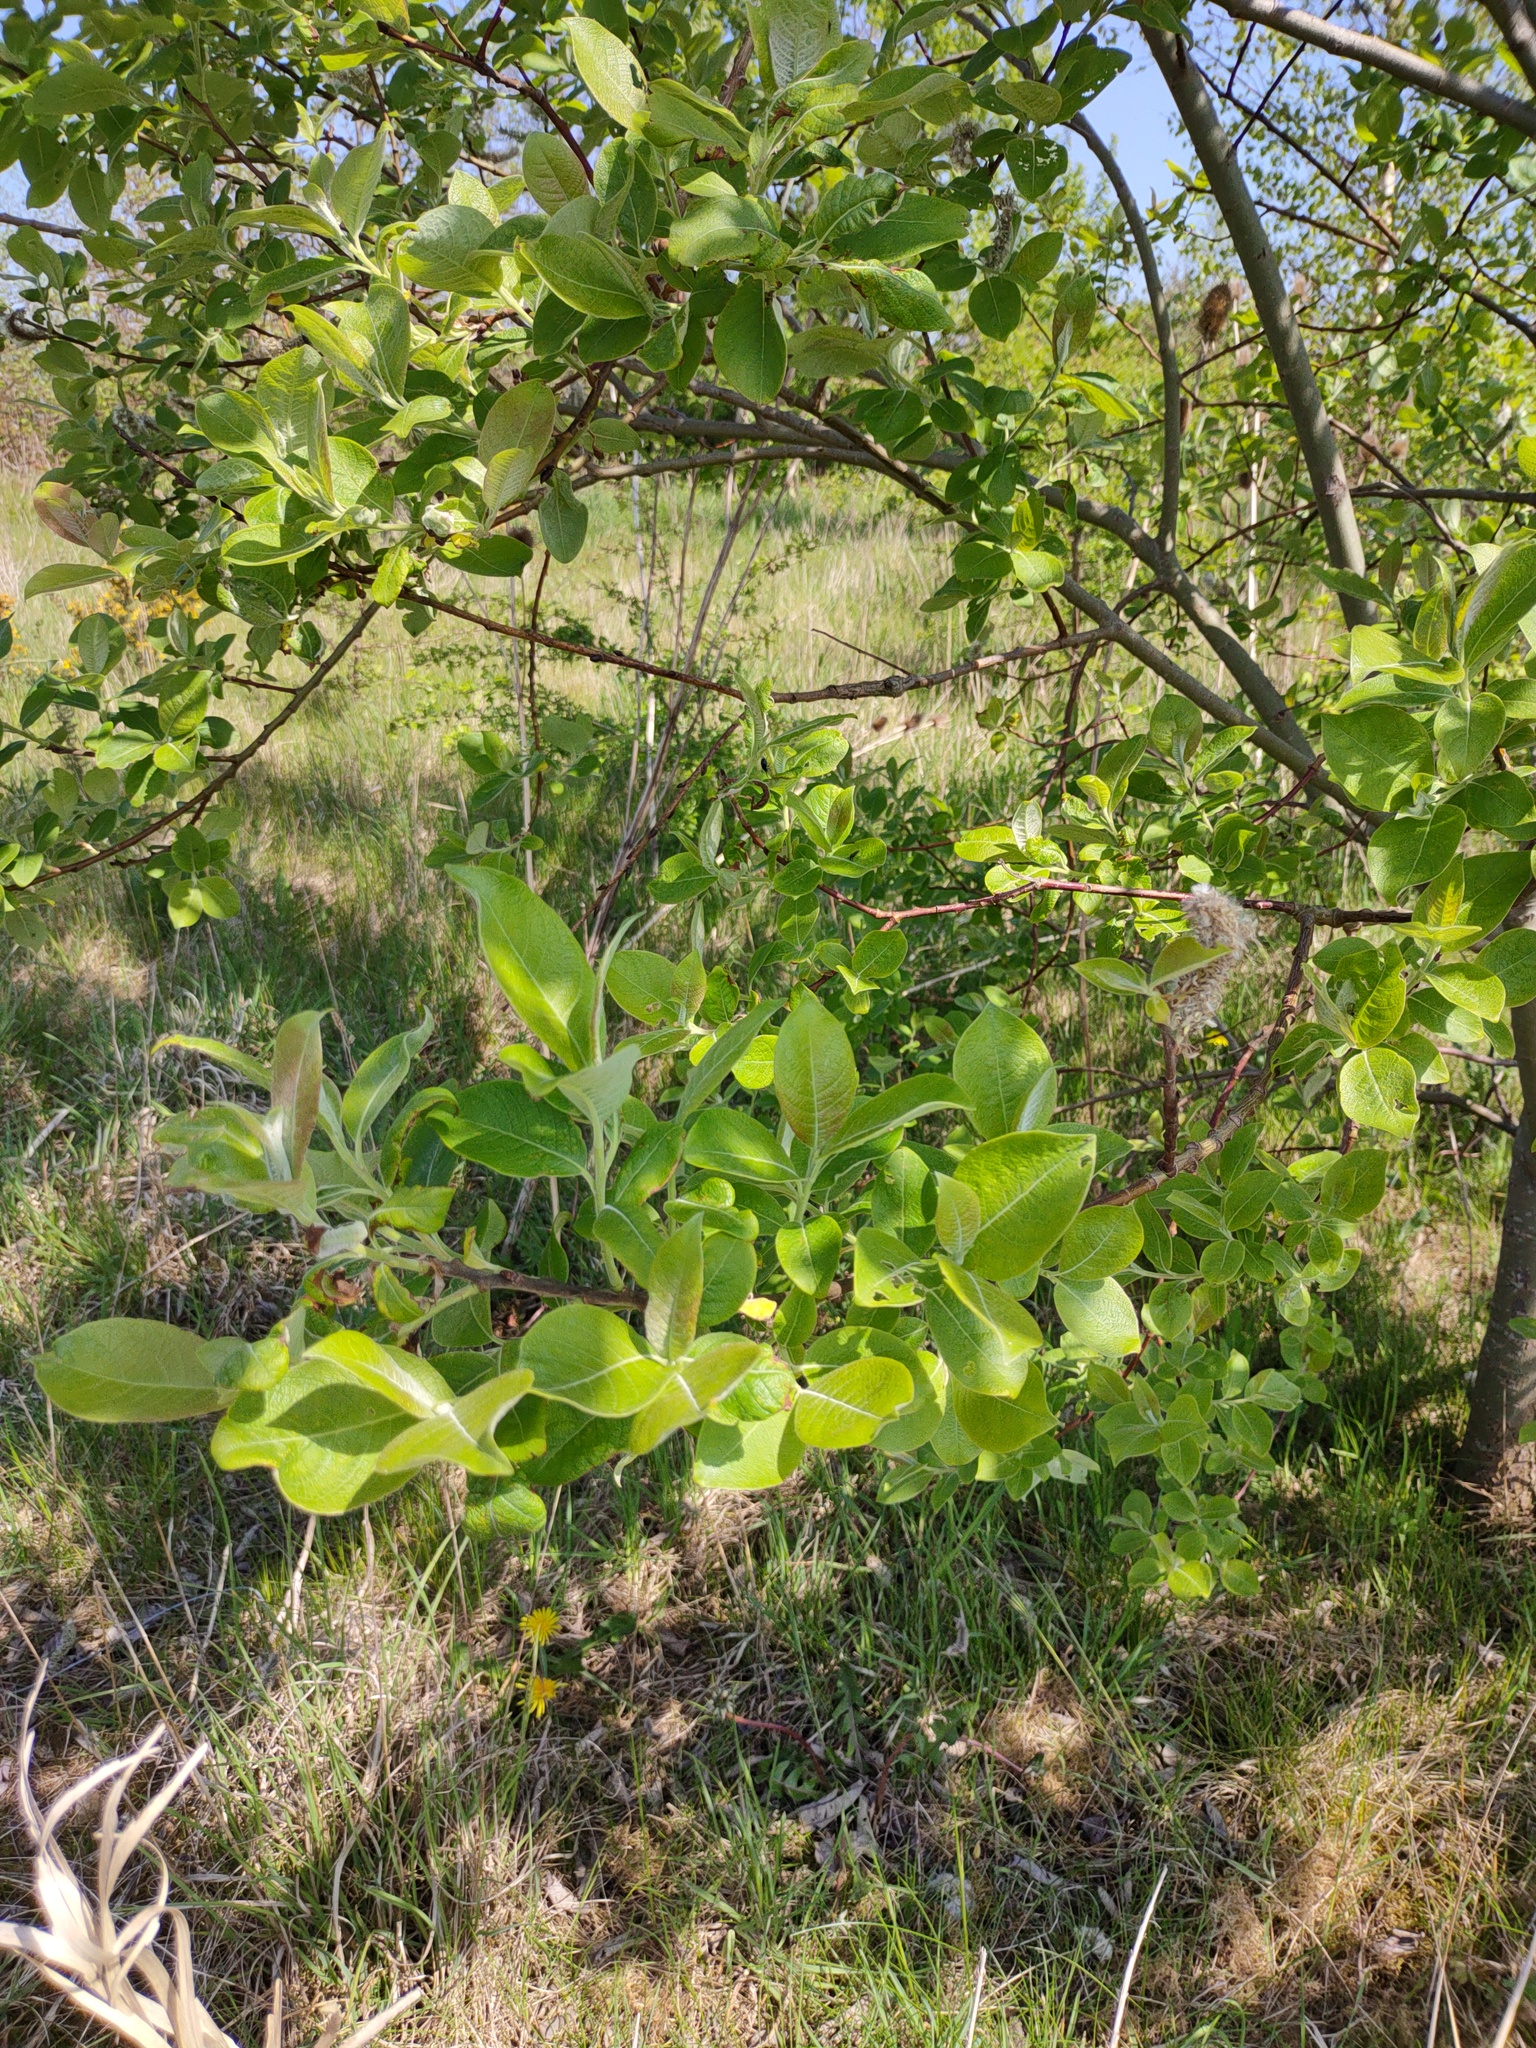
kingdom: Plantae
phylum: Tracheophyta
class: Magnoliopsida
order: Malpighiales
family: Salicaceae
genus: Salix
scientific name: Salix caprea
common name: Goat willow
